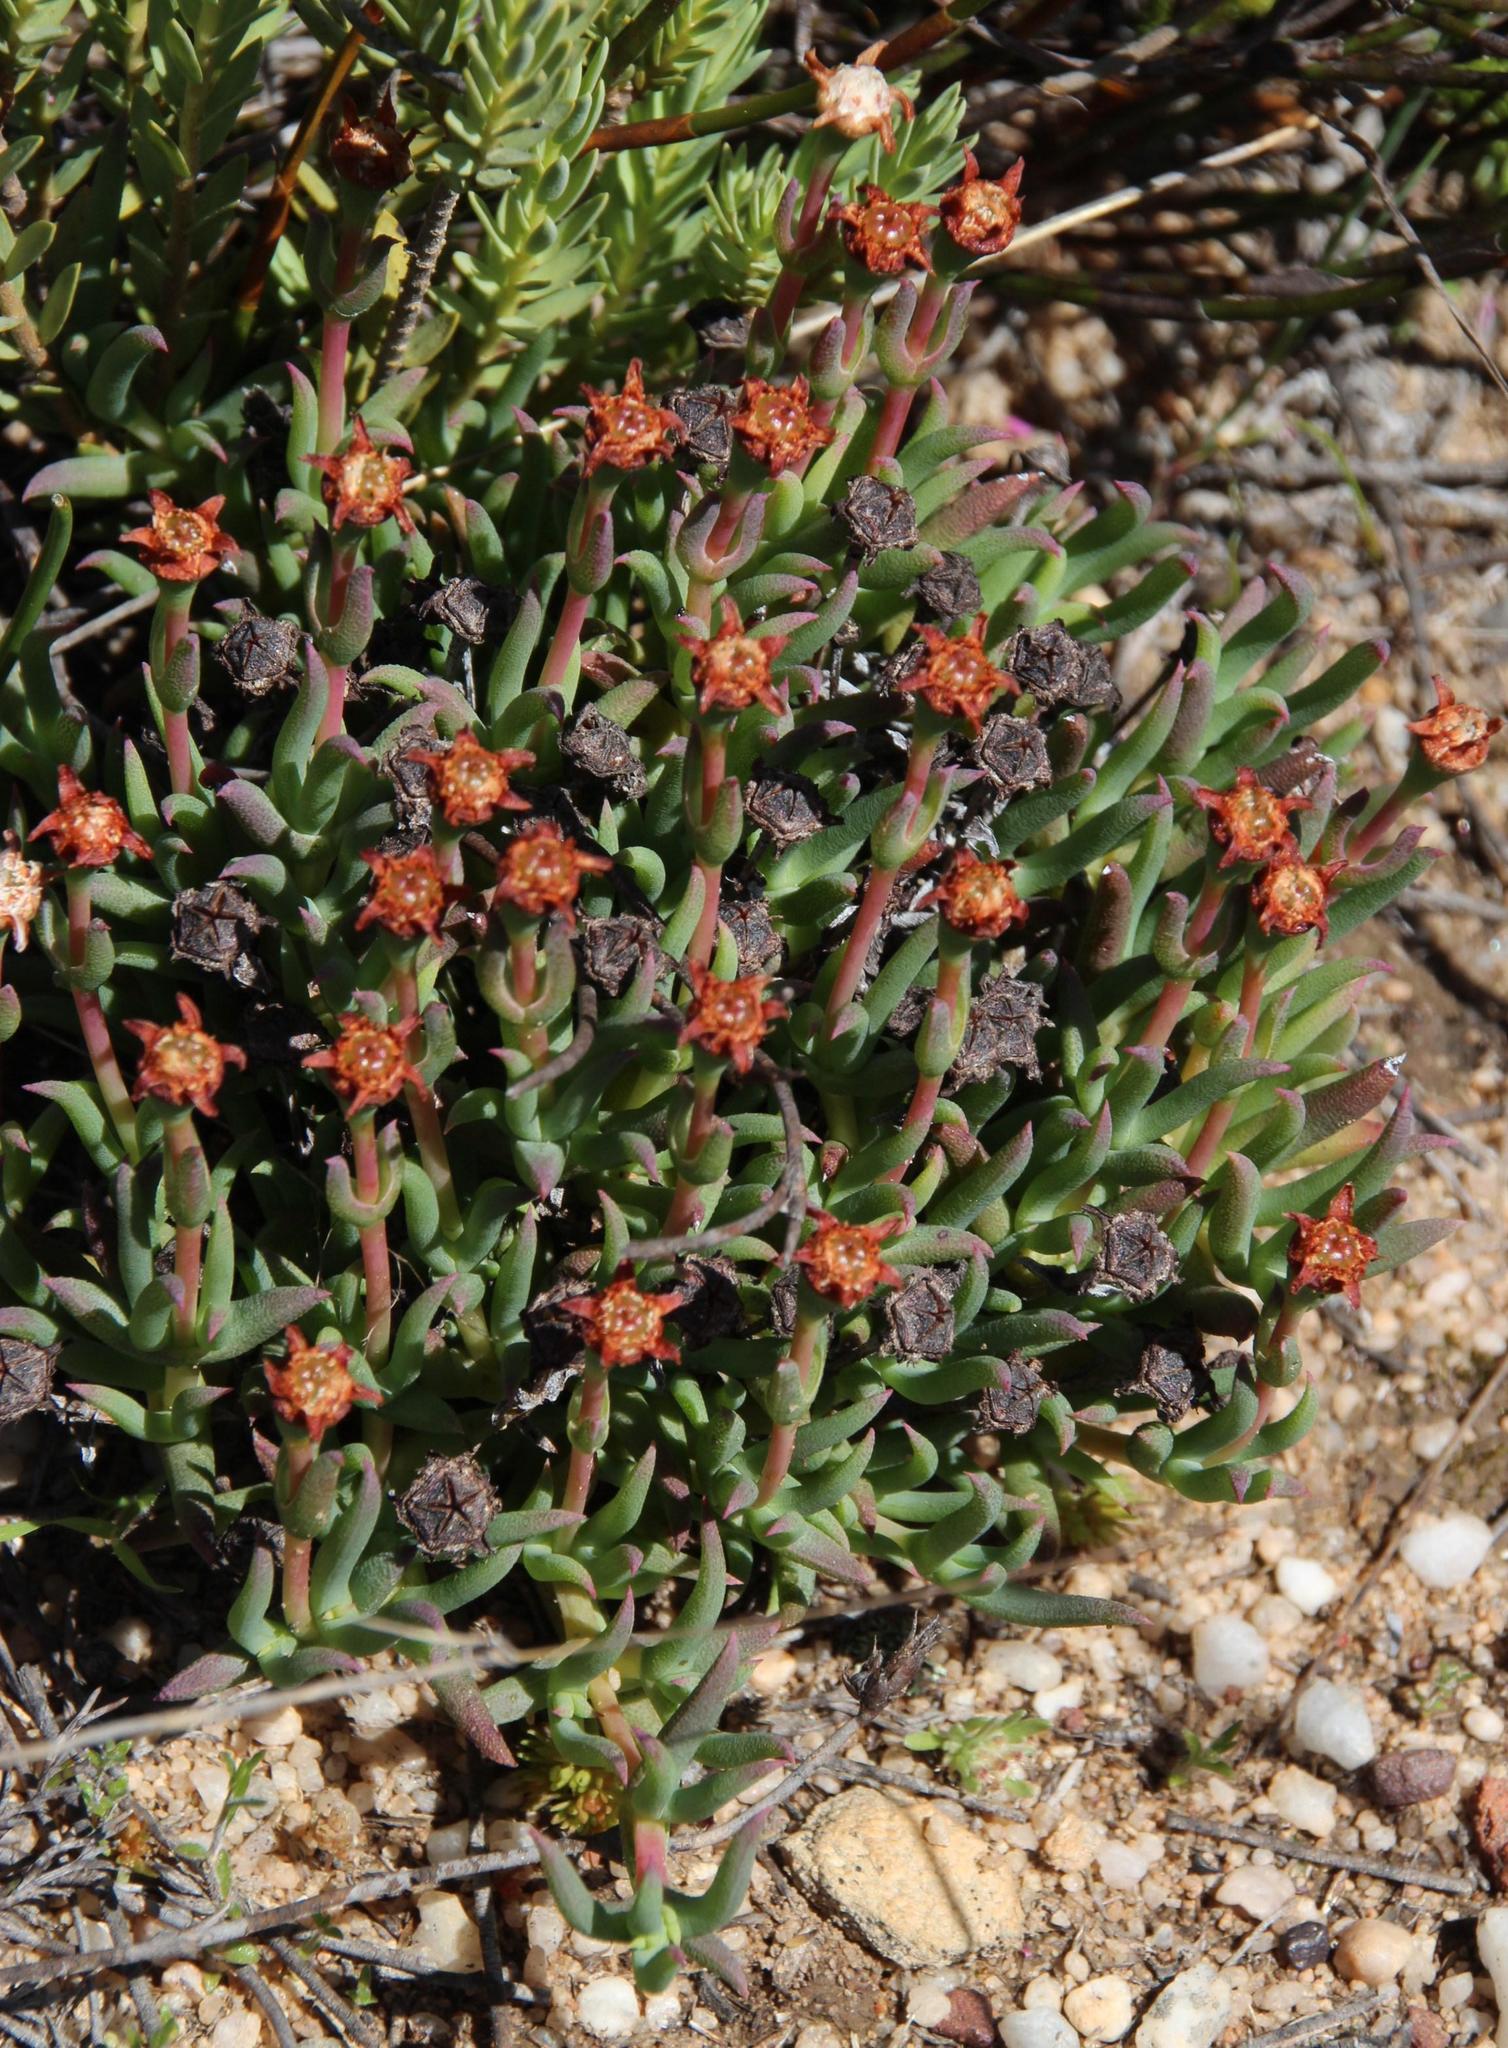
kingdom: Plantae
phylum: Tracheophyta
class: Magnoliopsida
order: Caryophyllales
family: Aizoaceae
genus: Phiambolia
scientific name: Phiambolia francisci
